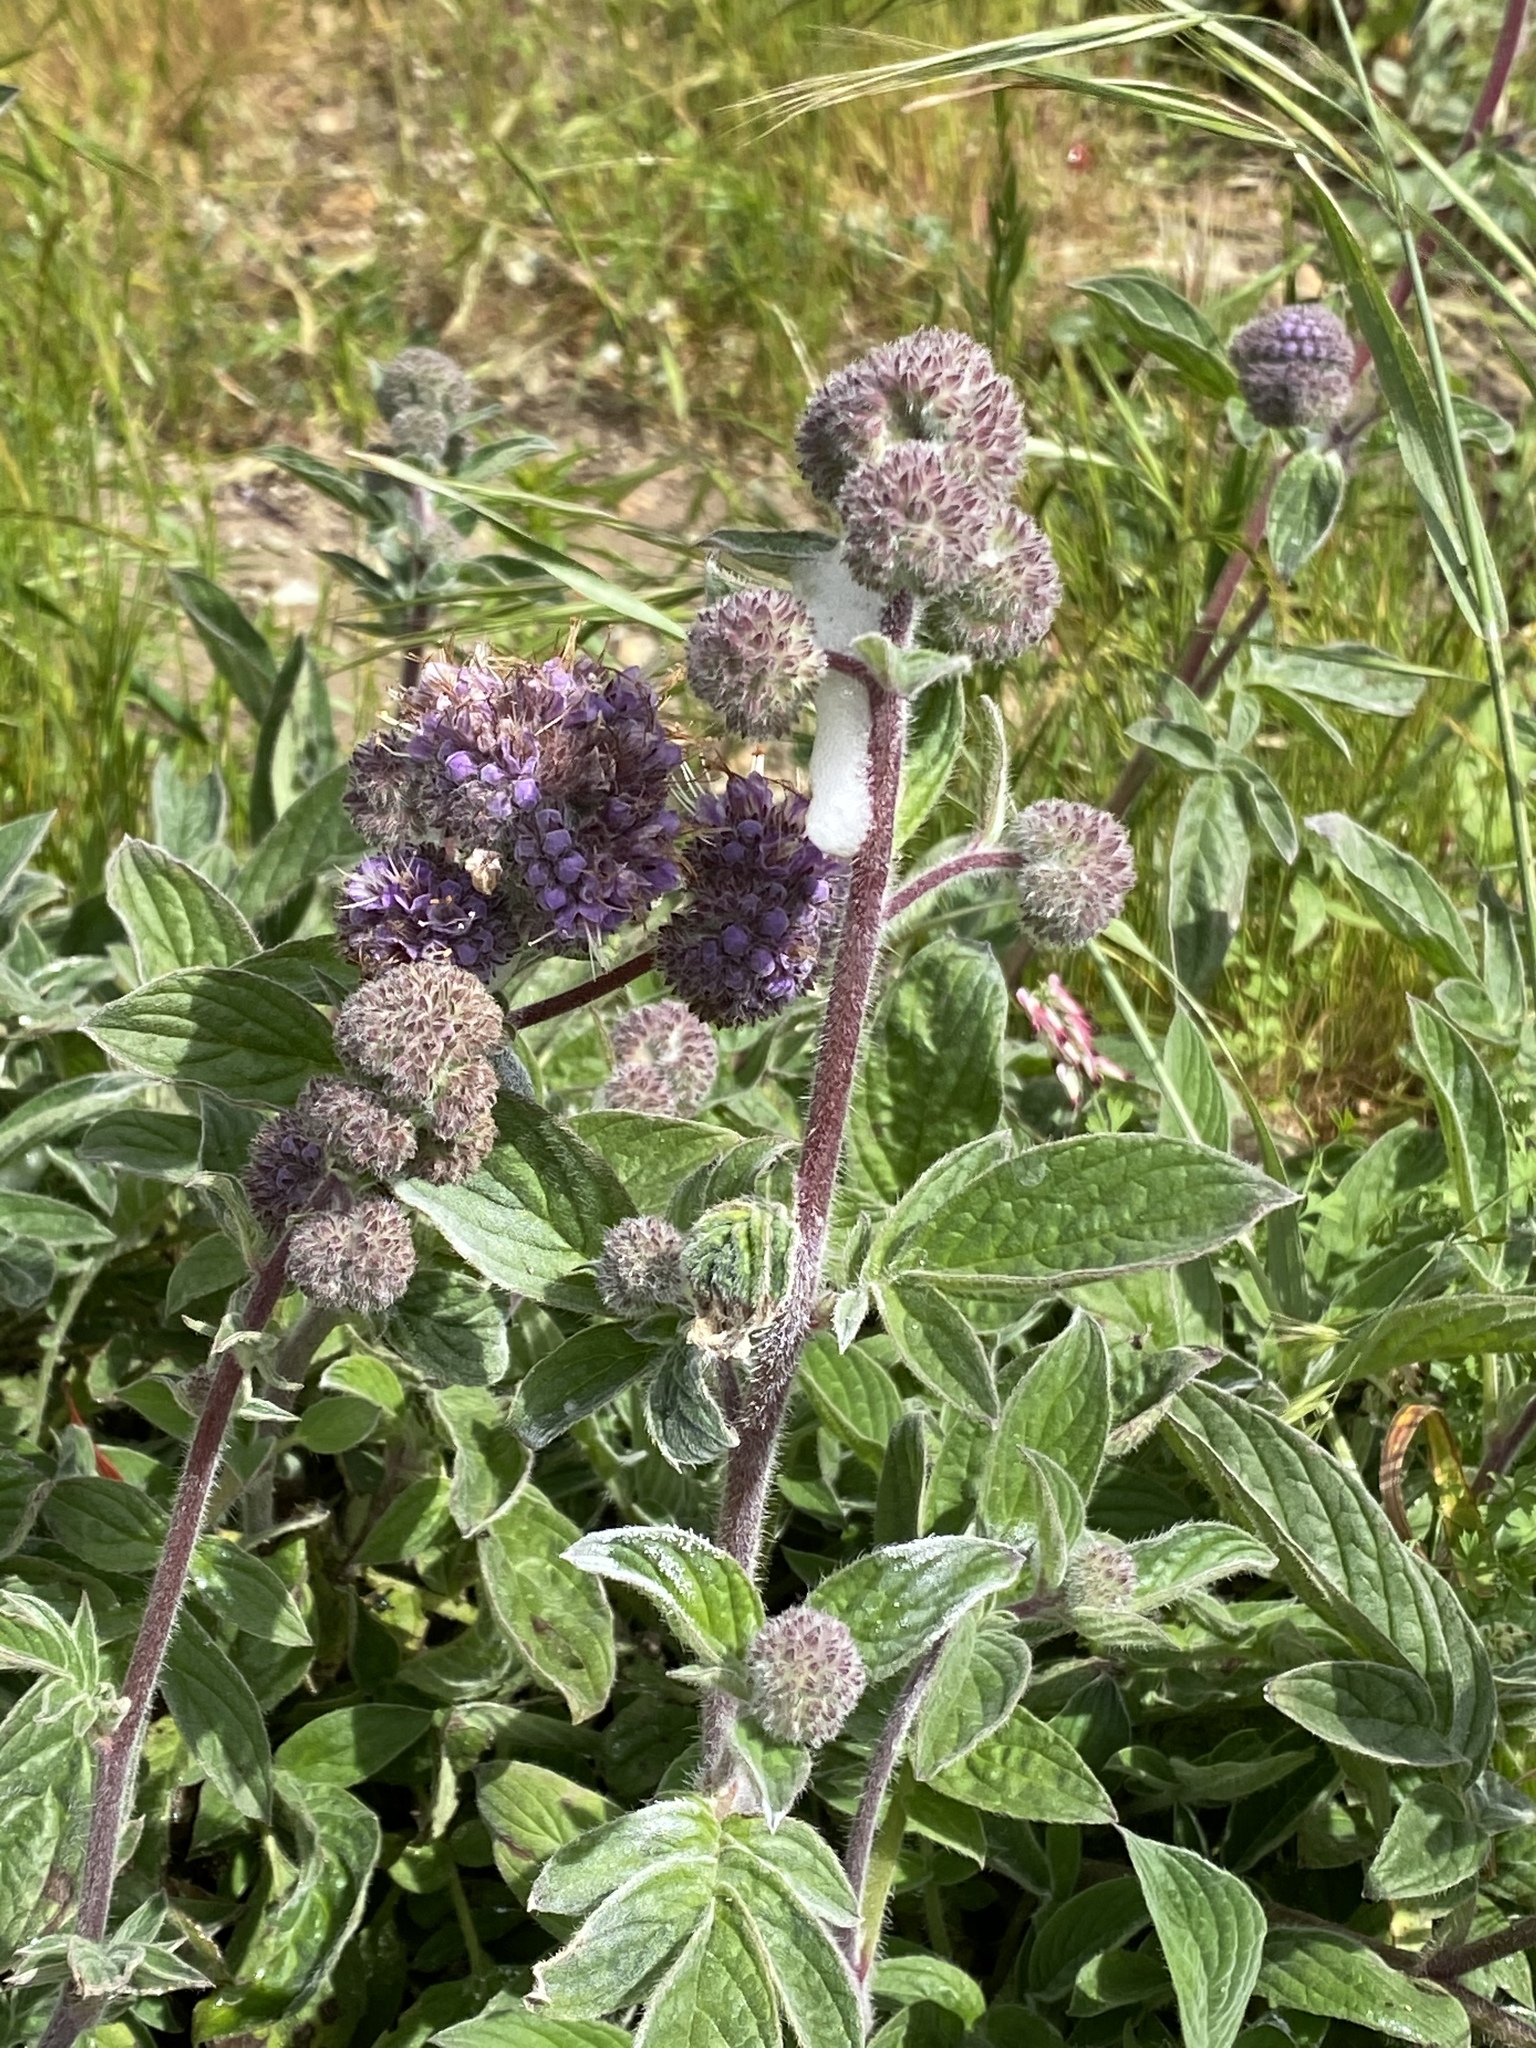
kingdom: Plantae
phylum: Tracheophyta
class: Magnoliopsida
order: Boraginales
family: Hydrophyllaceae
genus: Phacelia
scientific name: Phacelia californica
